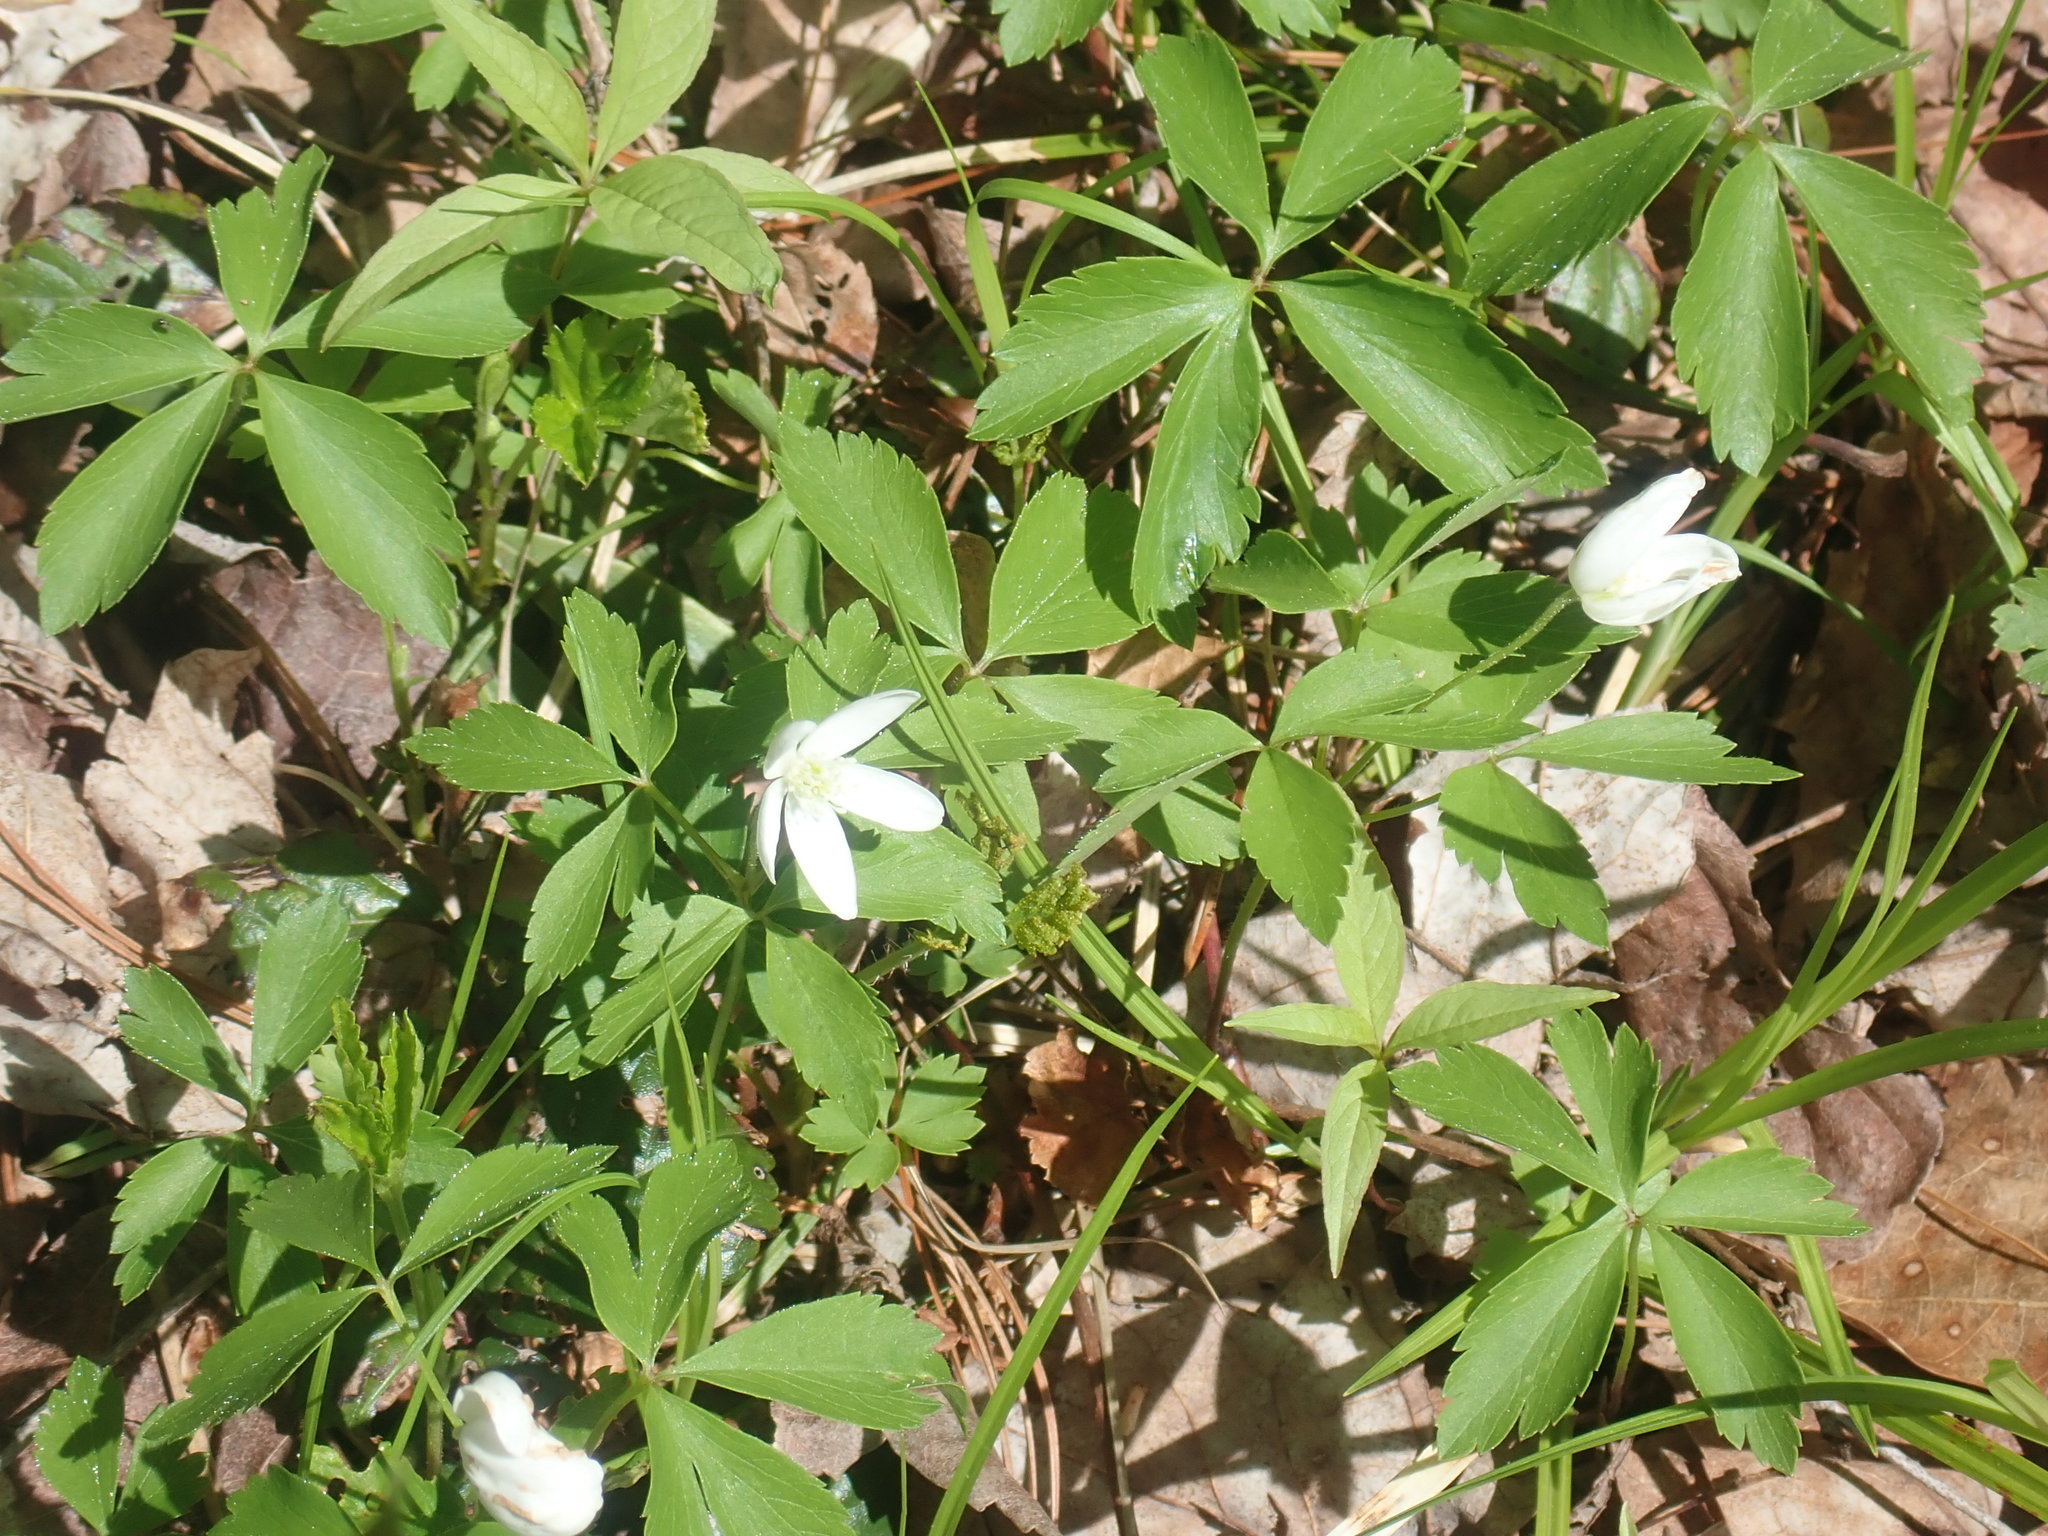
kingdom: Plantae
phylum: Tracheophyta
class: Magnoliopsida
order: Ranunculales
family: Ranunculaceae
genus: Anemone
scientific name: Anemone quinquefolia
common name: Wood anemone
